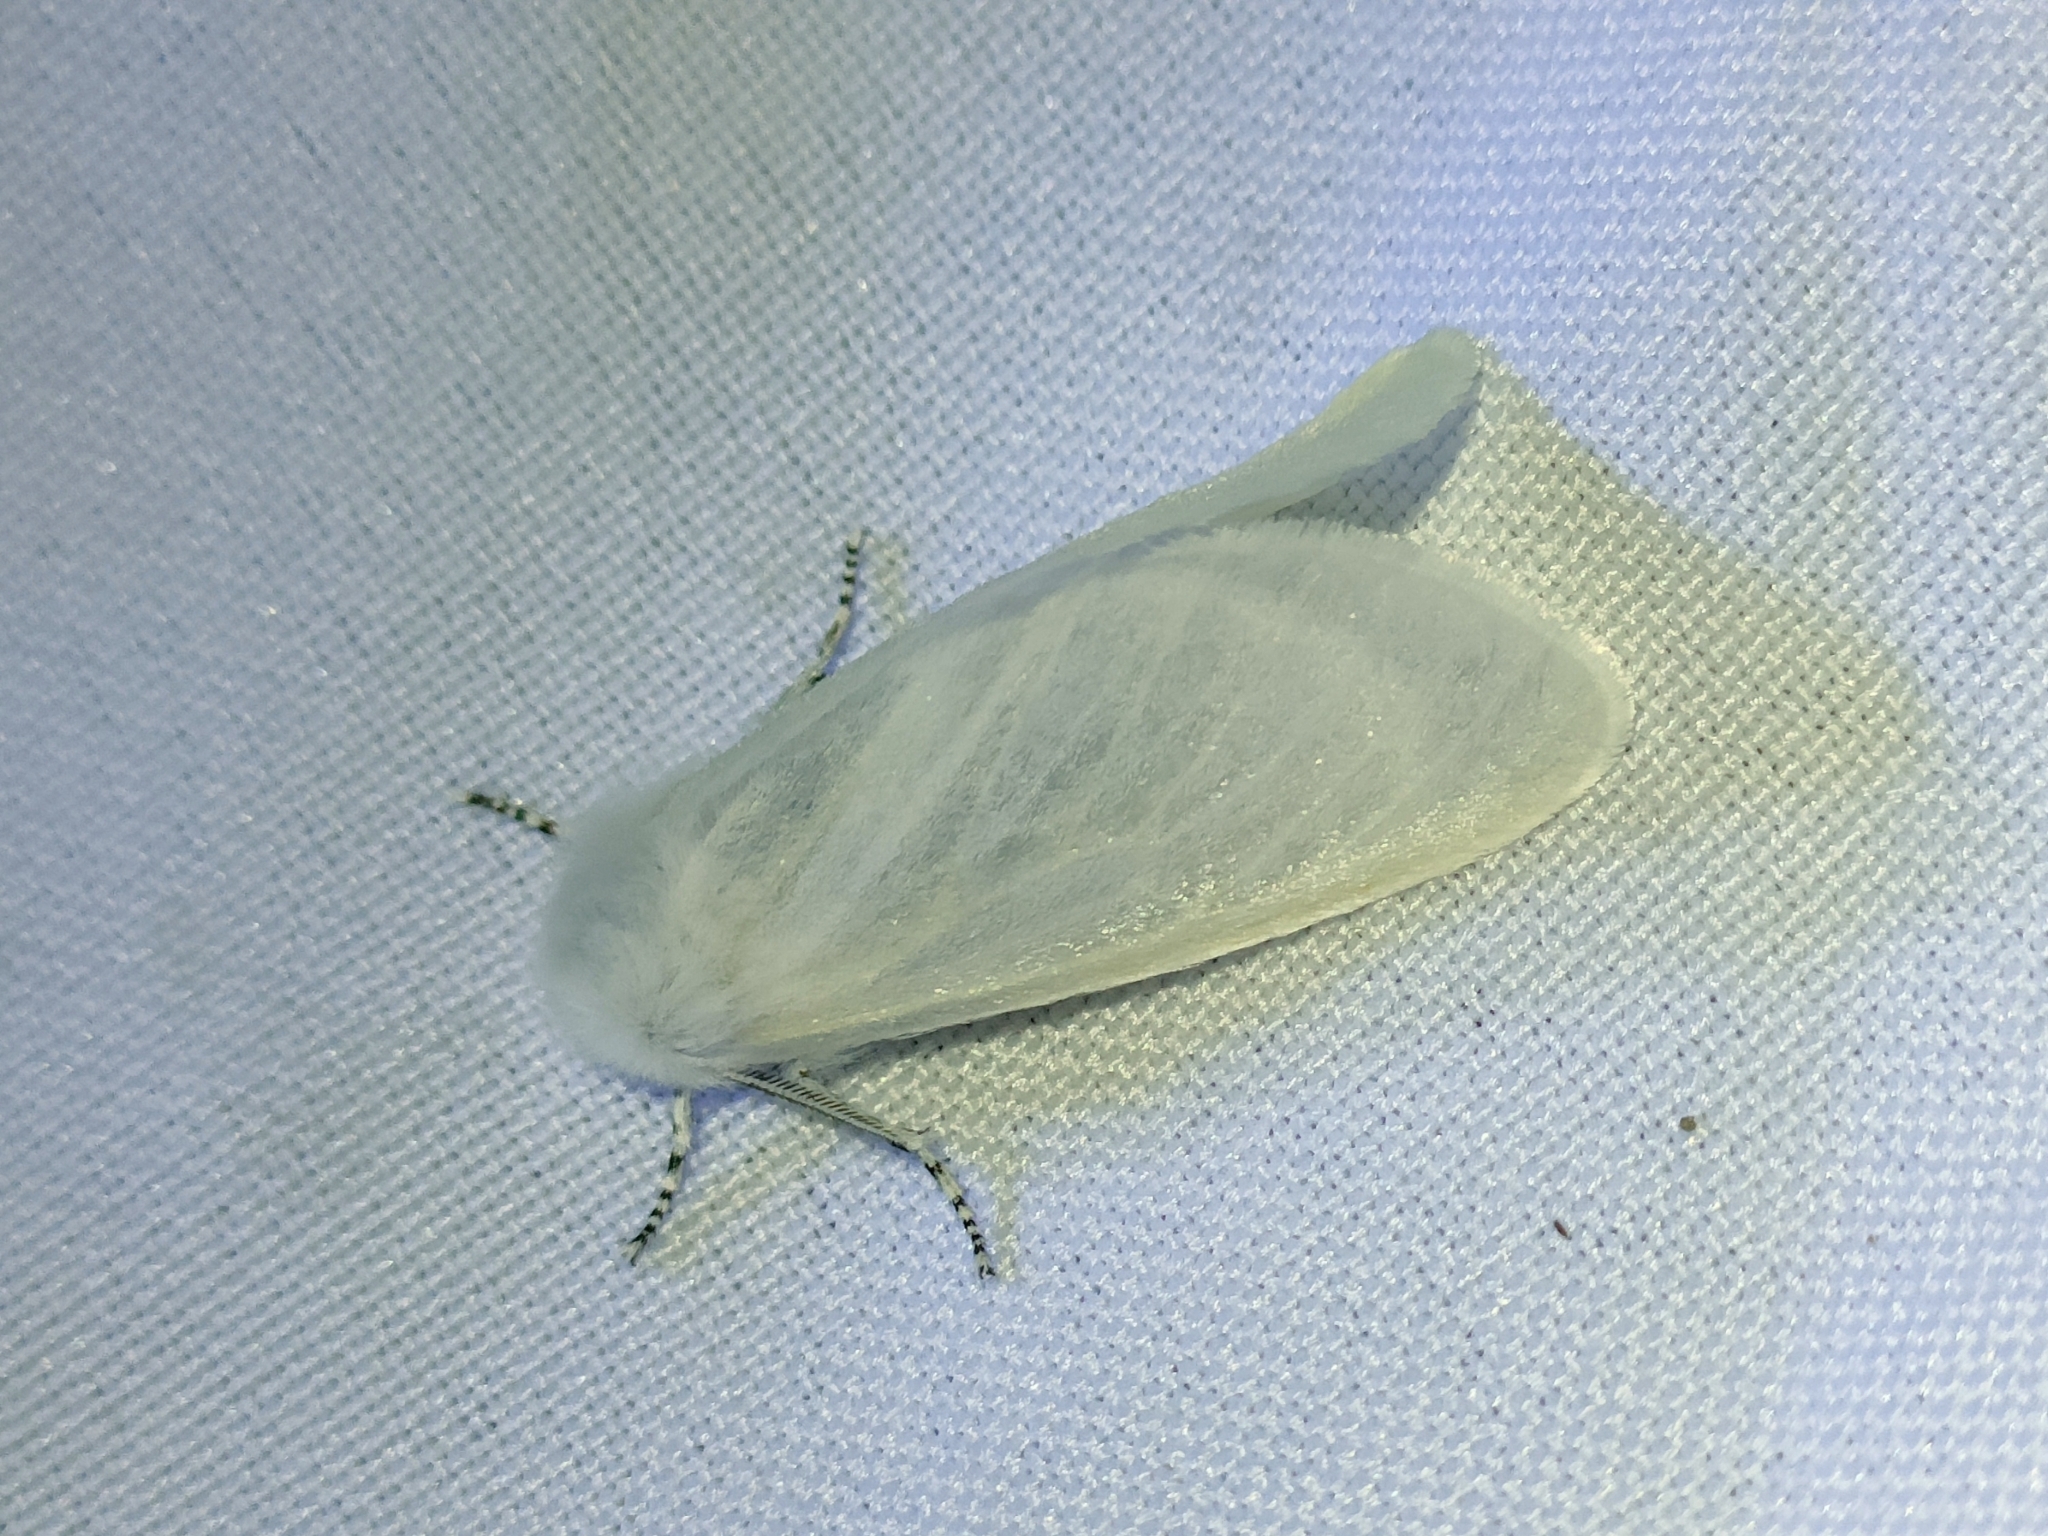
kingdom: Animalia
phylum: Arthropoda
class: Insecta
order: Lepidoptera
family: Erebidae
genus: Leucoma
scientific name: Leucoma salicis
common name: White satin moth
